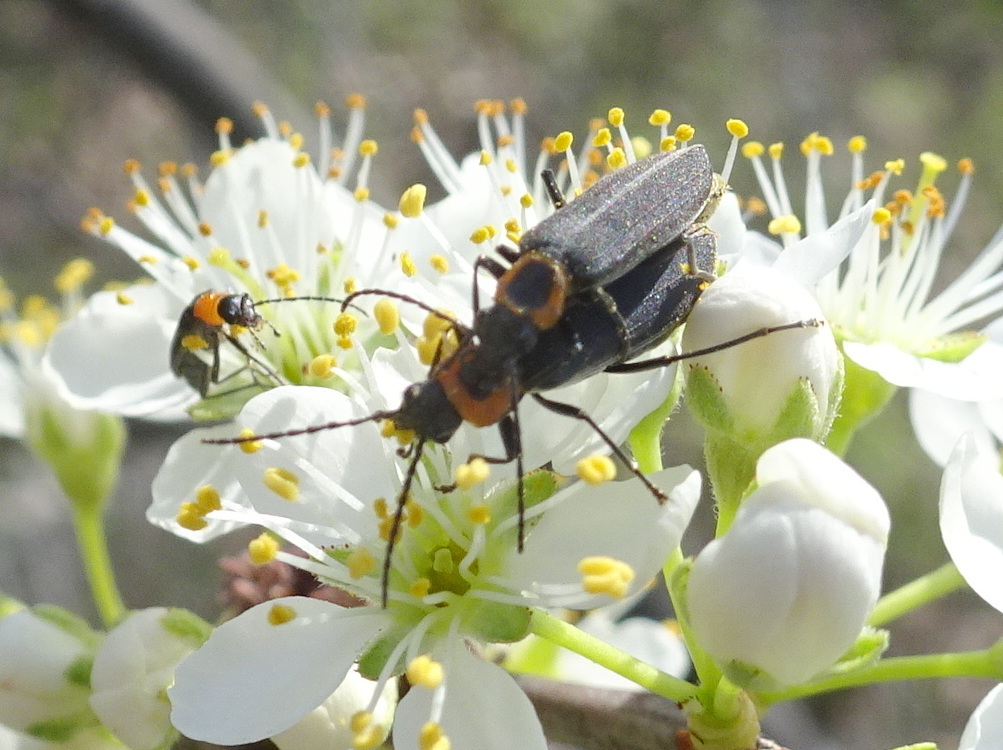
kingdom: Animalia
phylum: Arthropoda
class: Insecta
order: Coleoptera
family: Oedemeridae
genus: Ischnomera
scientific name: Ischnomera
